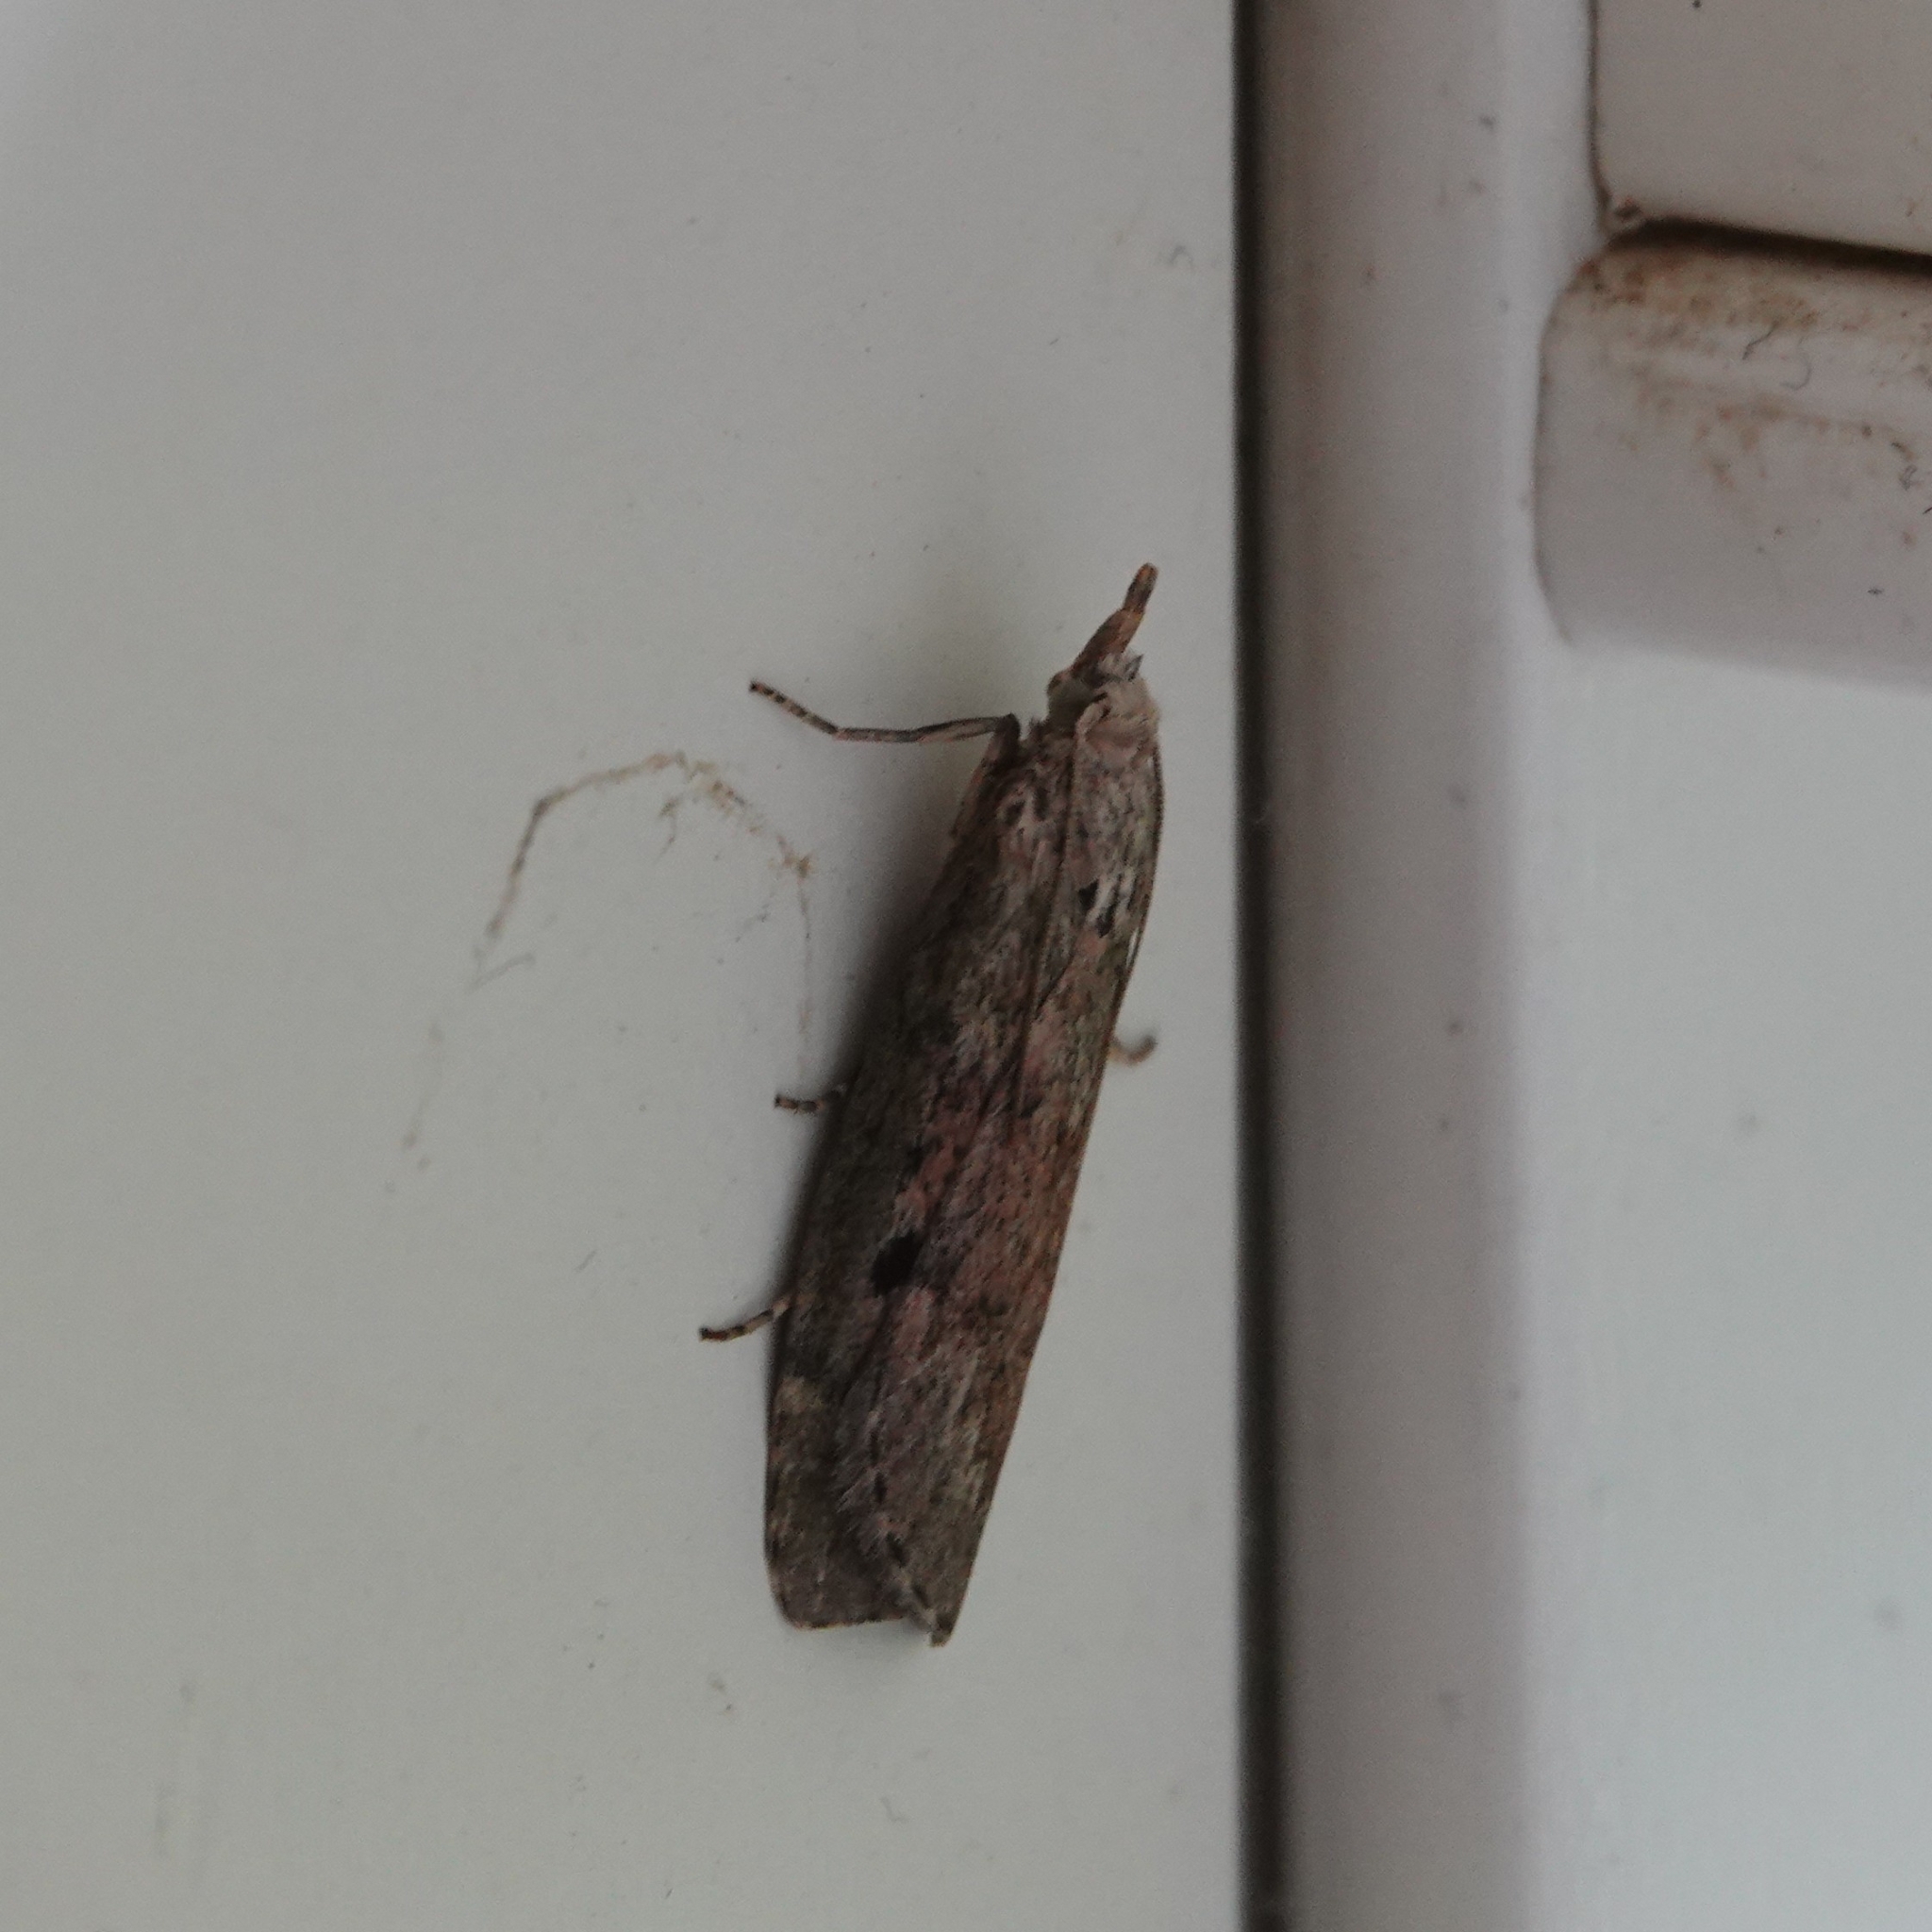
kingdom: Animalia
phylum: Arthropoda
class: Insecta
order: Lepidoptera
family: Pyralidae
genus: Aphomia
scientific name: Aphomia sociella
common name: Bee moth
